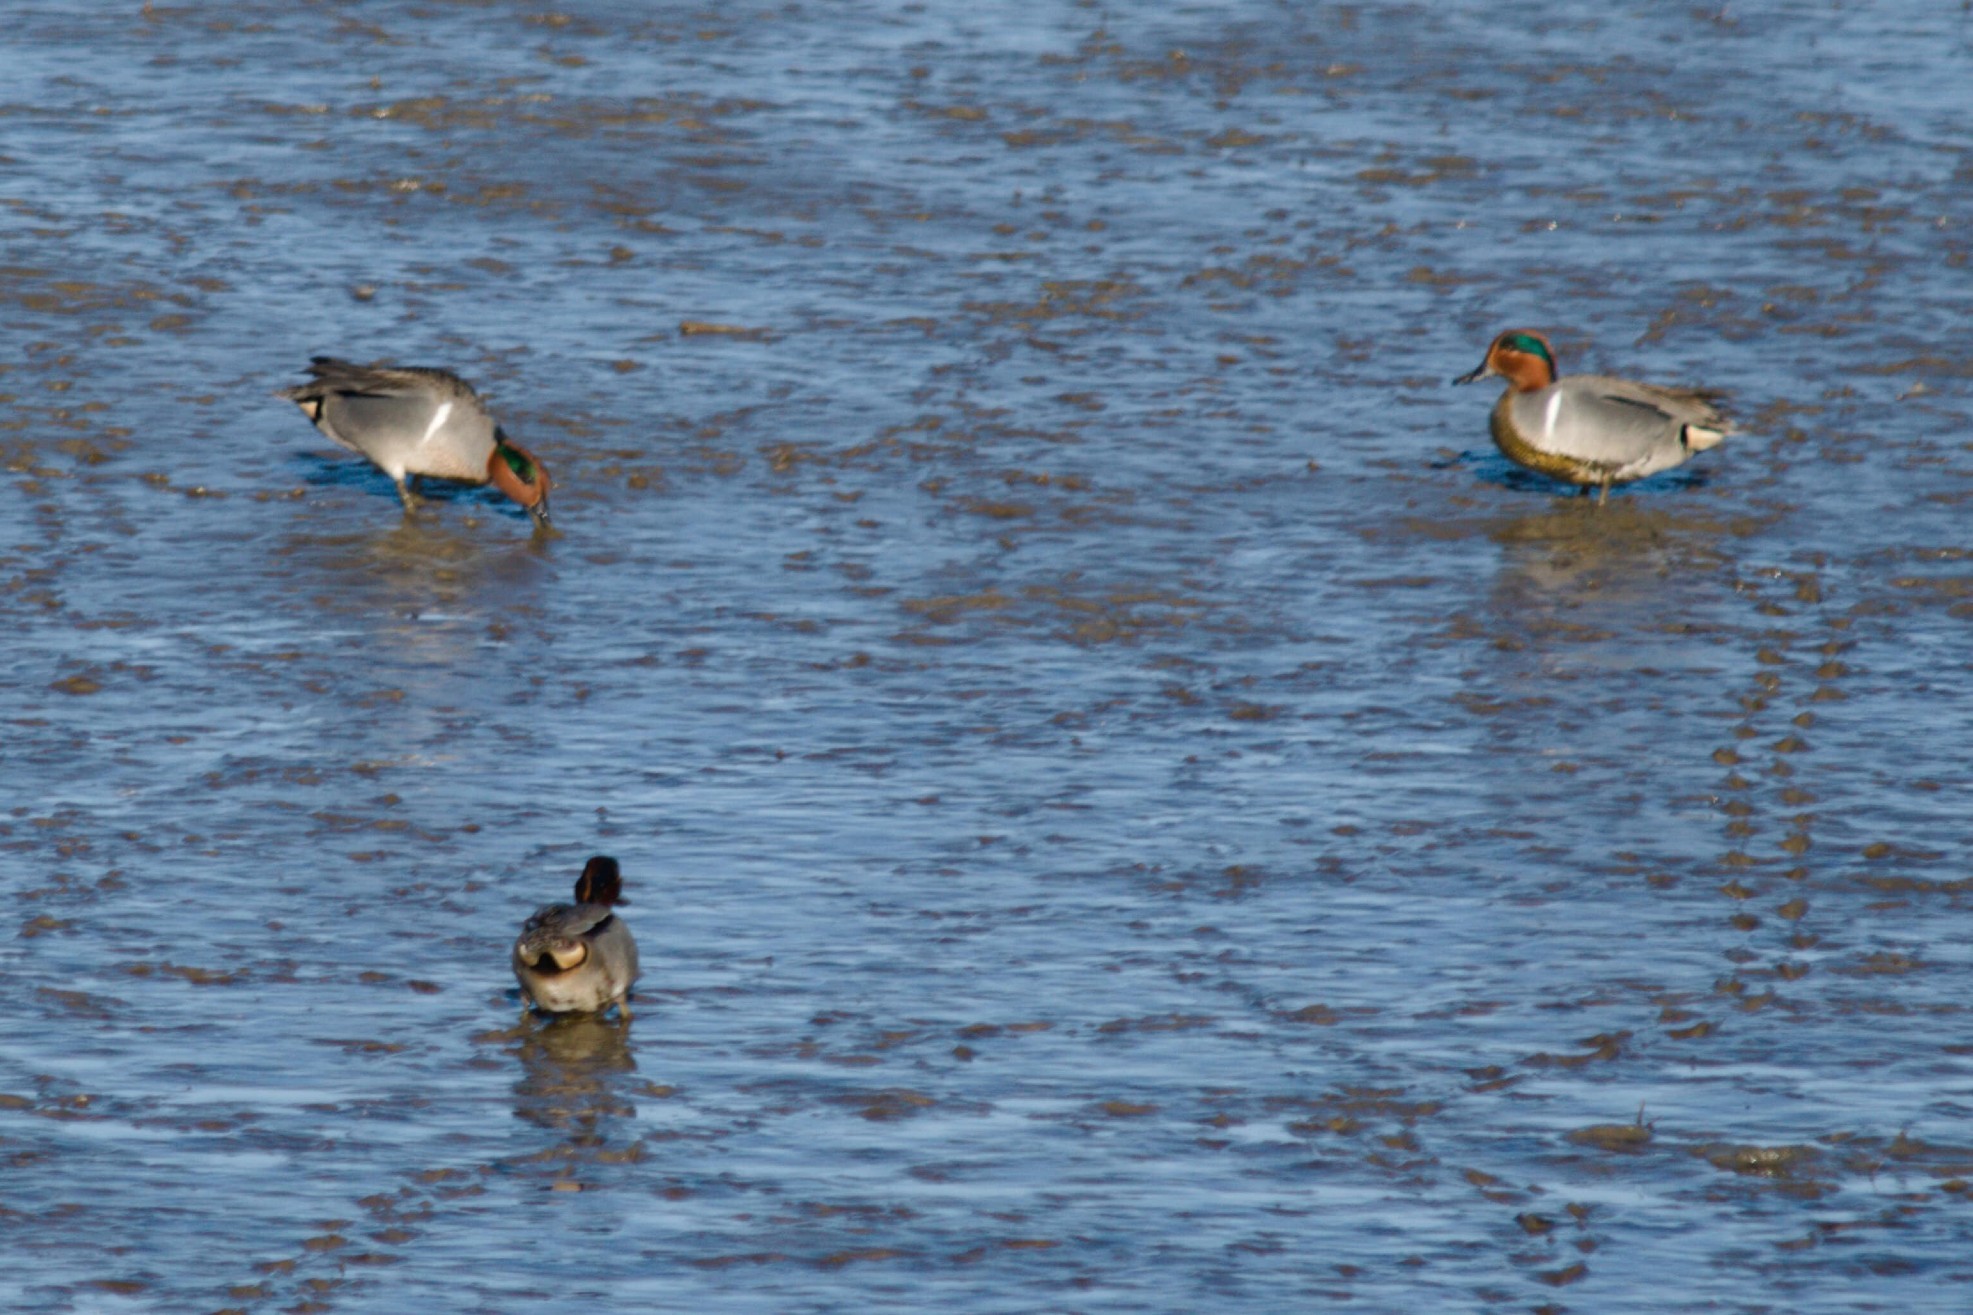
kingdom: Animalia
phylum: Chordata
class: Aves
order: Anseriformes
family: Anatidae
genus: Anas
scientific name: Anas crecca
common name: Eurasian teal
